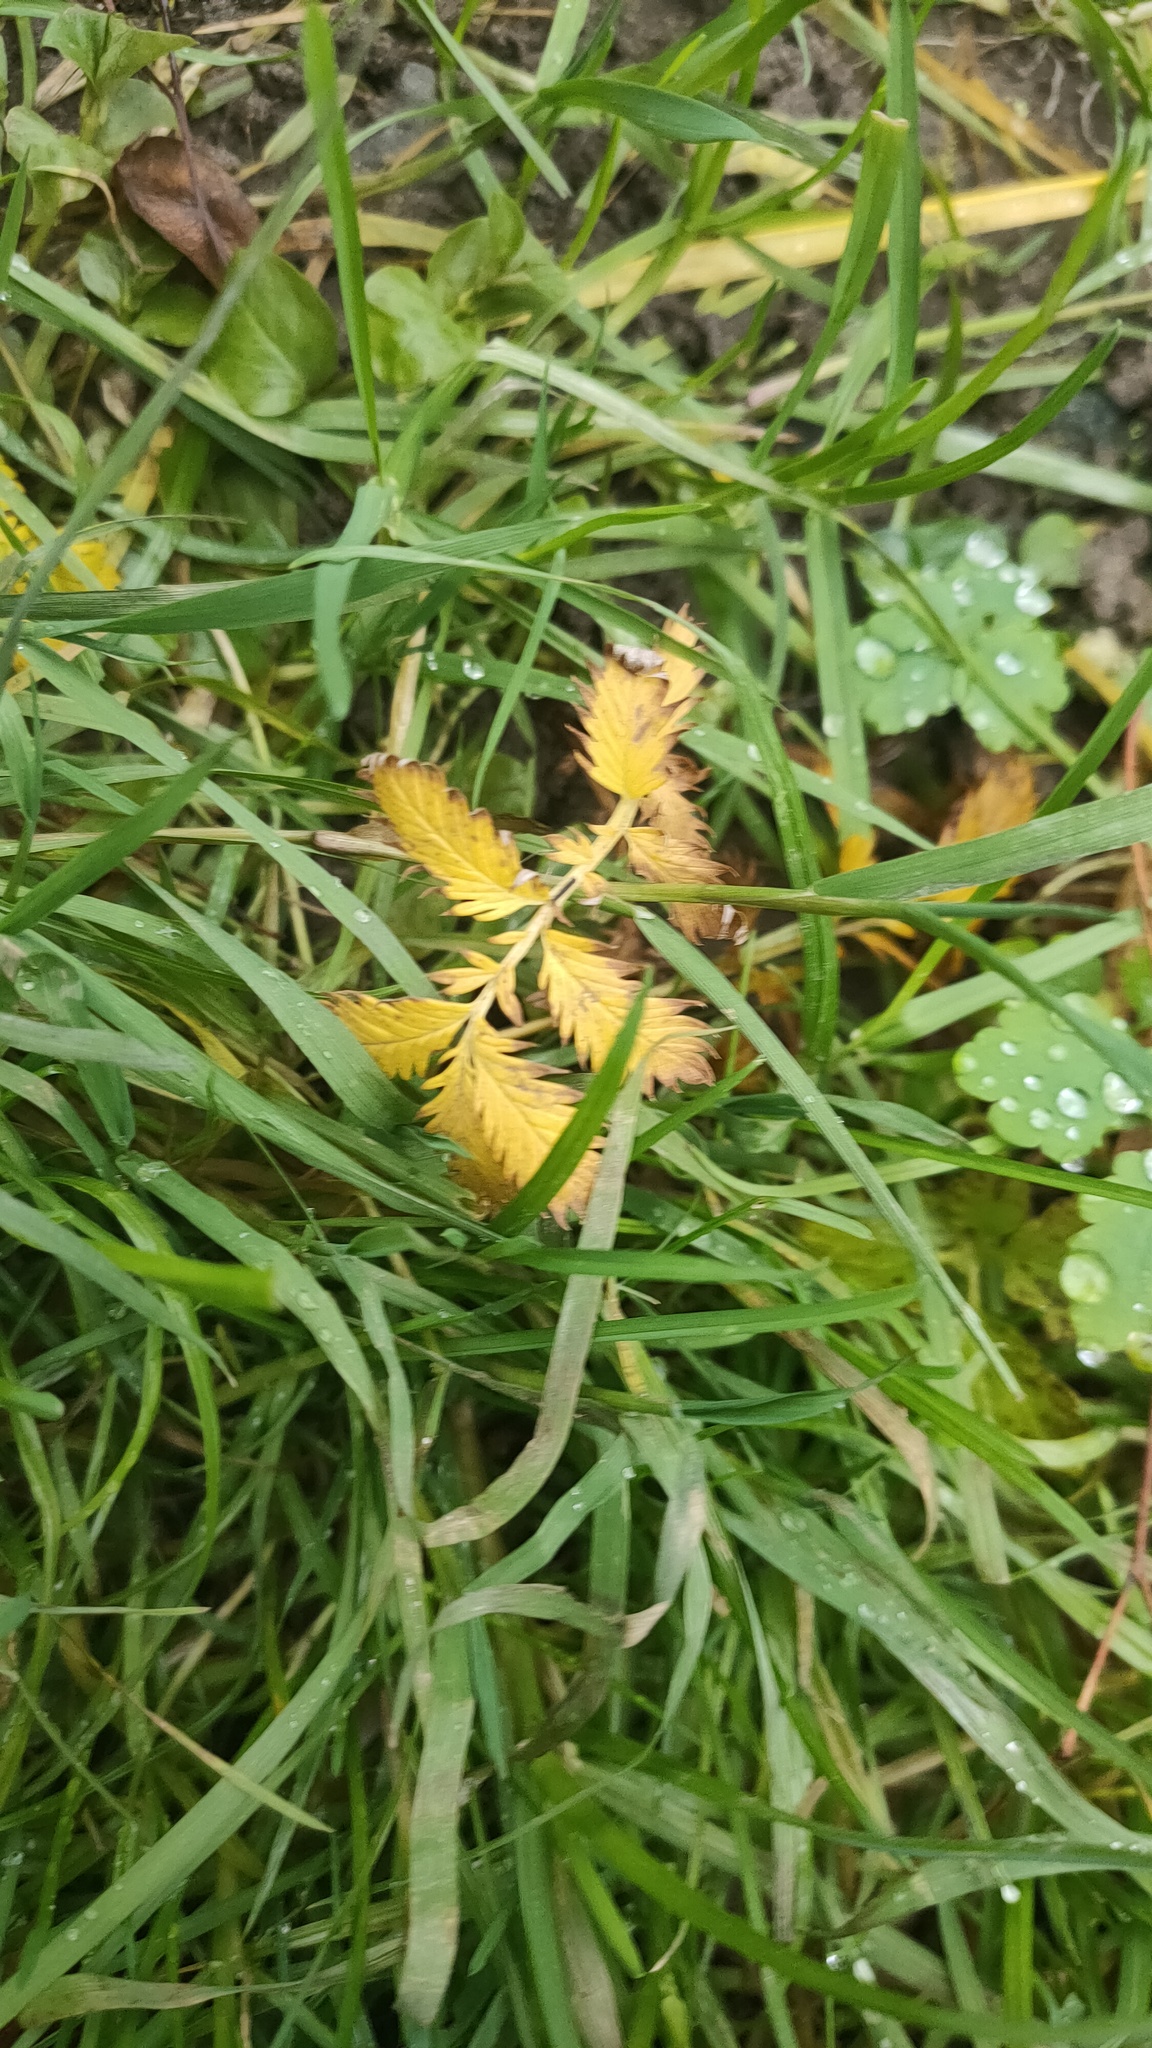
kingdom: Plantae
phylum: Tracheophyta
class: Magnoliopsida
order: Rosales
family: Rosaceae
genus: Argentina
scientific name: Argentina anserina
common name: Common silverweed
